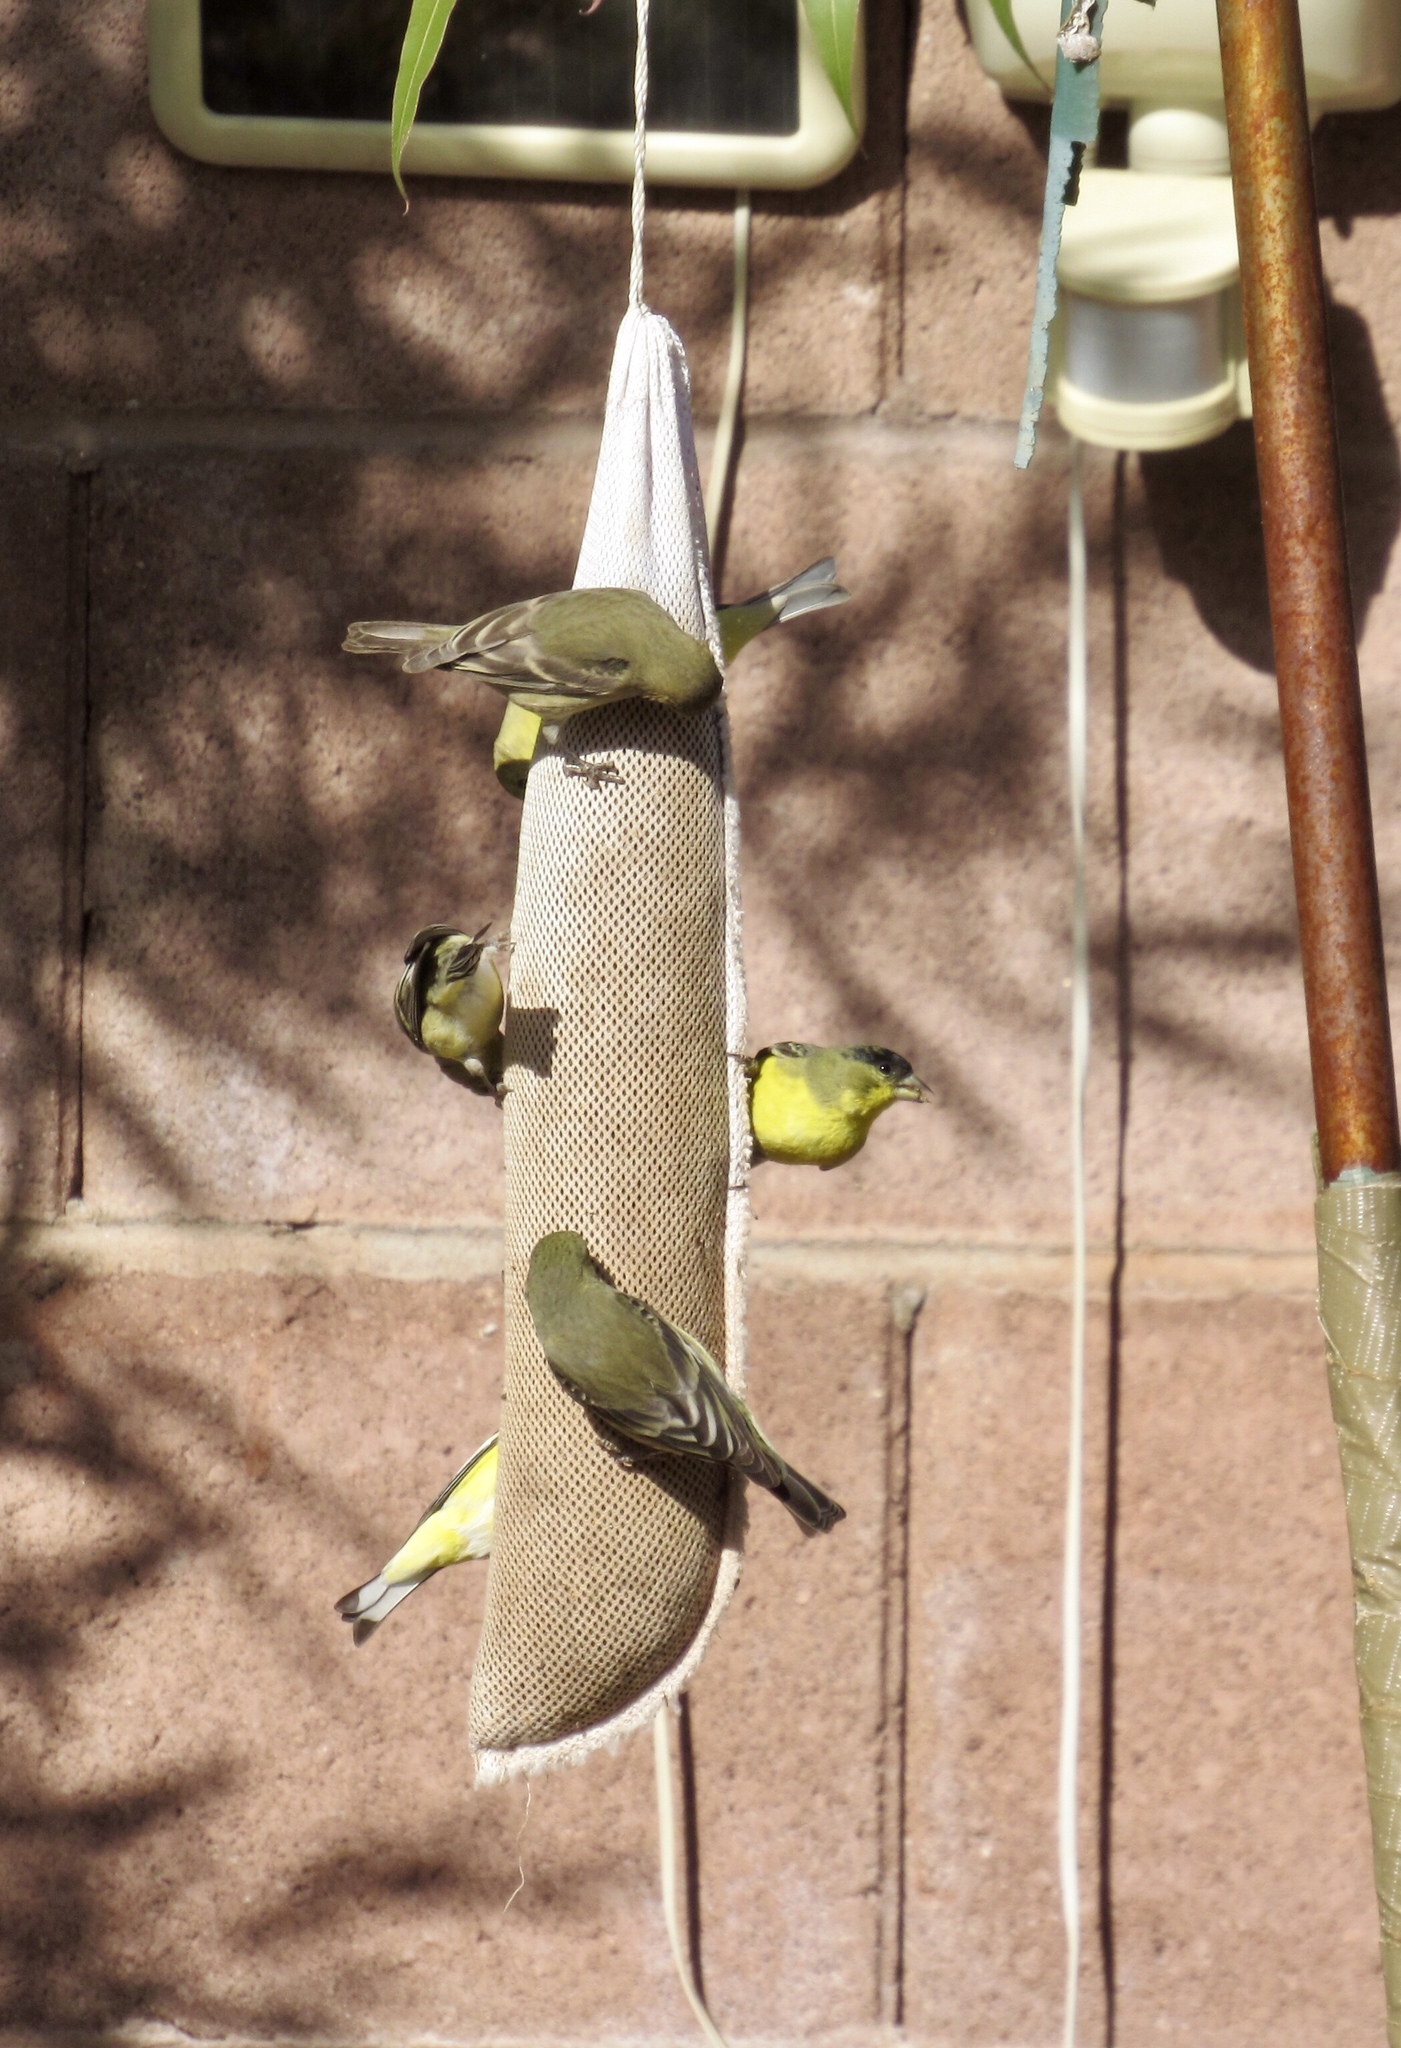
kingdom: Animalia
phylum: Chordata
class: Aves
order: Passeriformes
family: Fringillidae
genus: Spinus
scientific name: Spinus psaltria
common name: Lesser goldfinch
